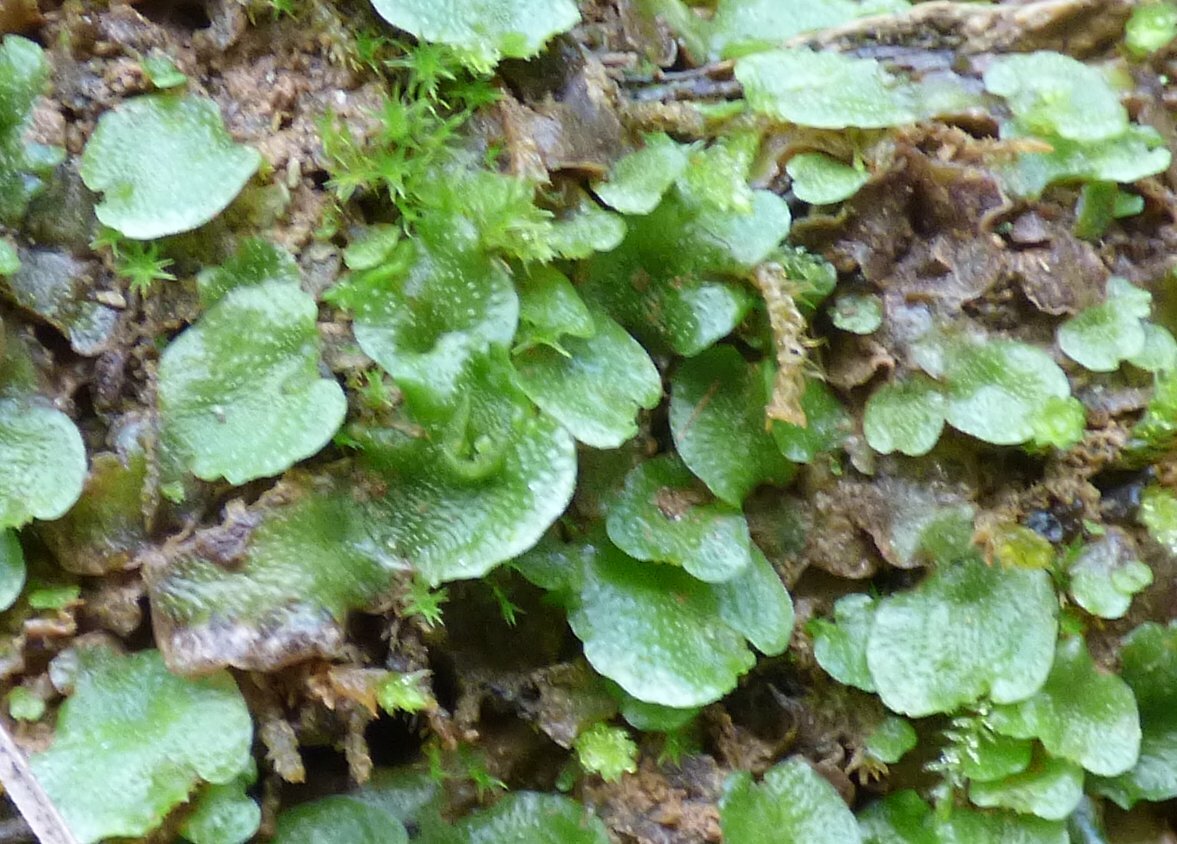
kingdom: Plantae
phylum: Marchantiophyta
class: Marchantiopsida
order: Lunulariales
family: Lunulariaceae
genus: Lunularia
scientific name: Lunularia cruciata
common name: Crescent-cup liverwort
